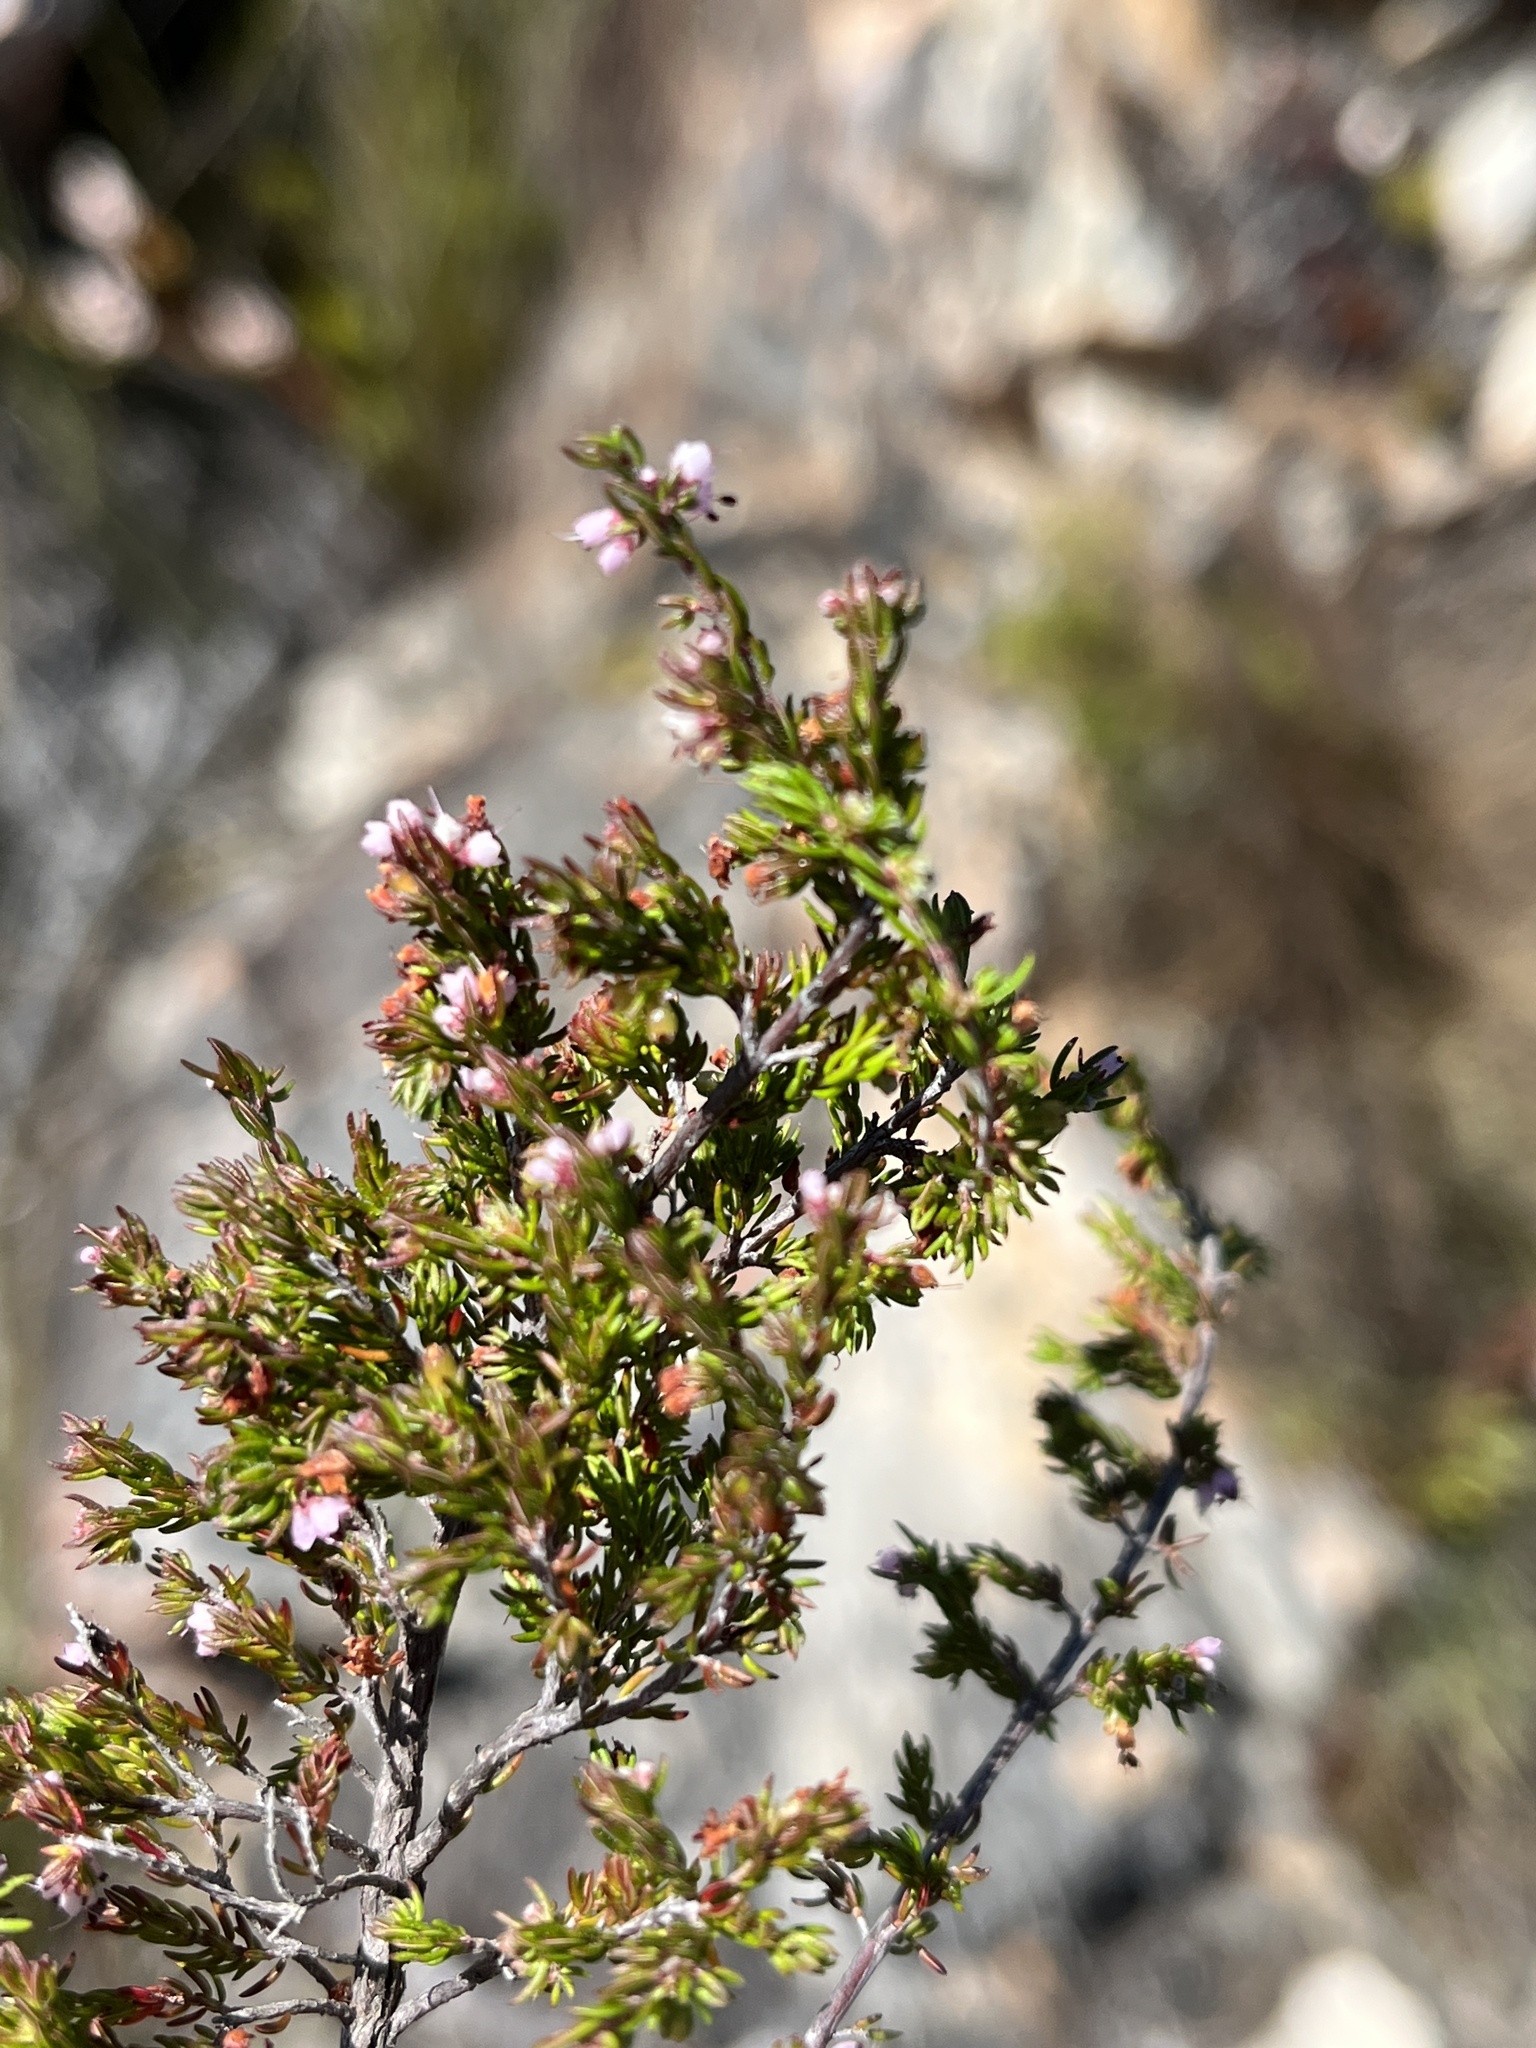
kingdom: Plantae
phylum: Tracheophyta
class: Magnoliopsida
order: Ericales
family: Ericaceae
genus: Erica
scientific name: Erica anguliger
